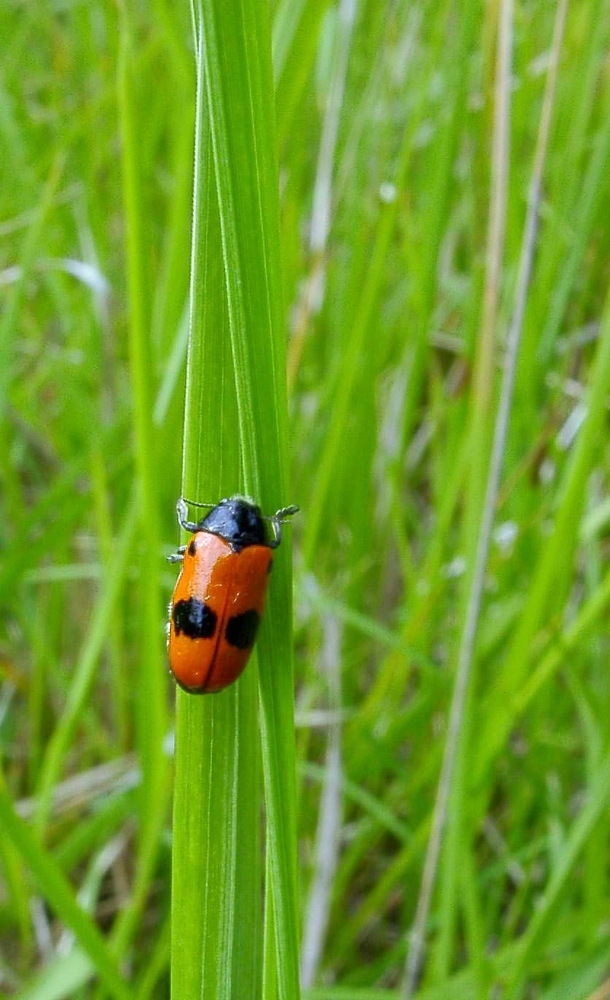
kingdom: Animalia
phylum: Arthropoda
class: Insecta
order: Coleoptera
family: Chrysomelidae
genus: Clytra
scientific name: Clytra laeviuscula
